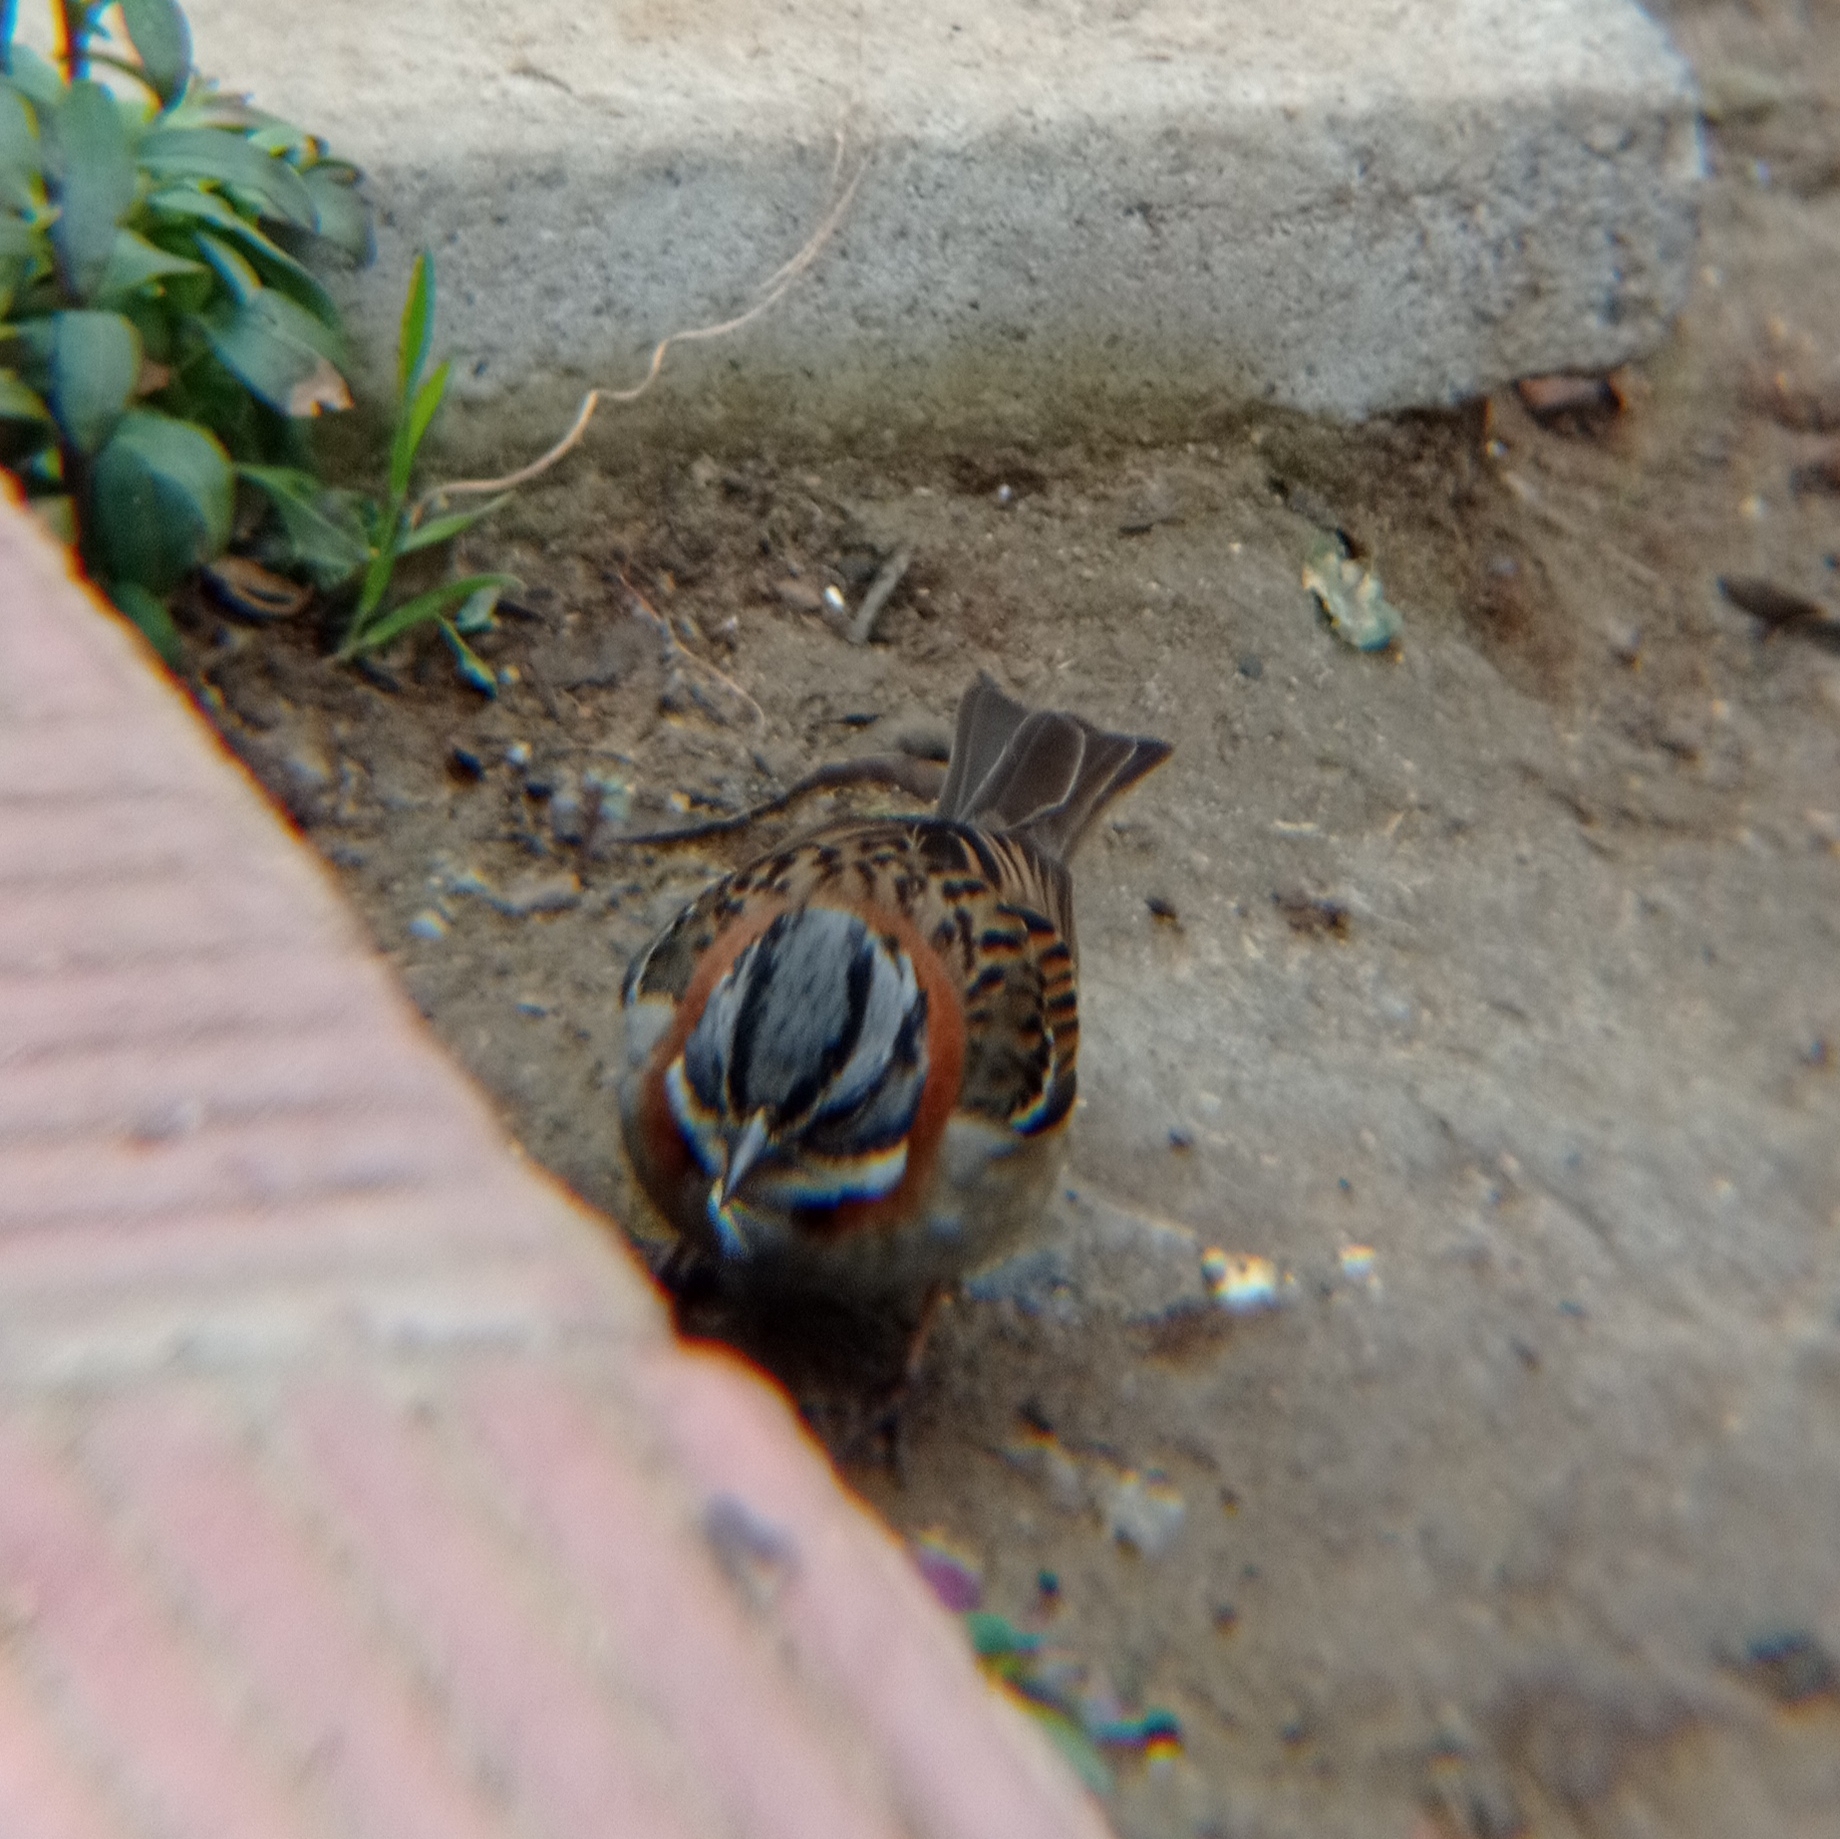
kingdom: Animalia
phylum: Chordata
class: Aves
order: Passeriformes
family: Passerellidae
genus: Zonotrichia
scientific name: Zonotrichia capensis
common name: Rufous-collared sparrow
